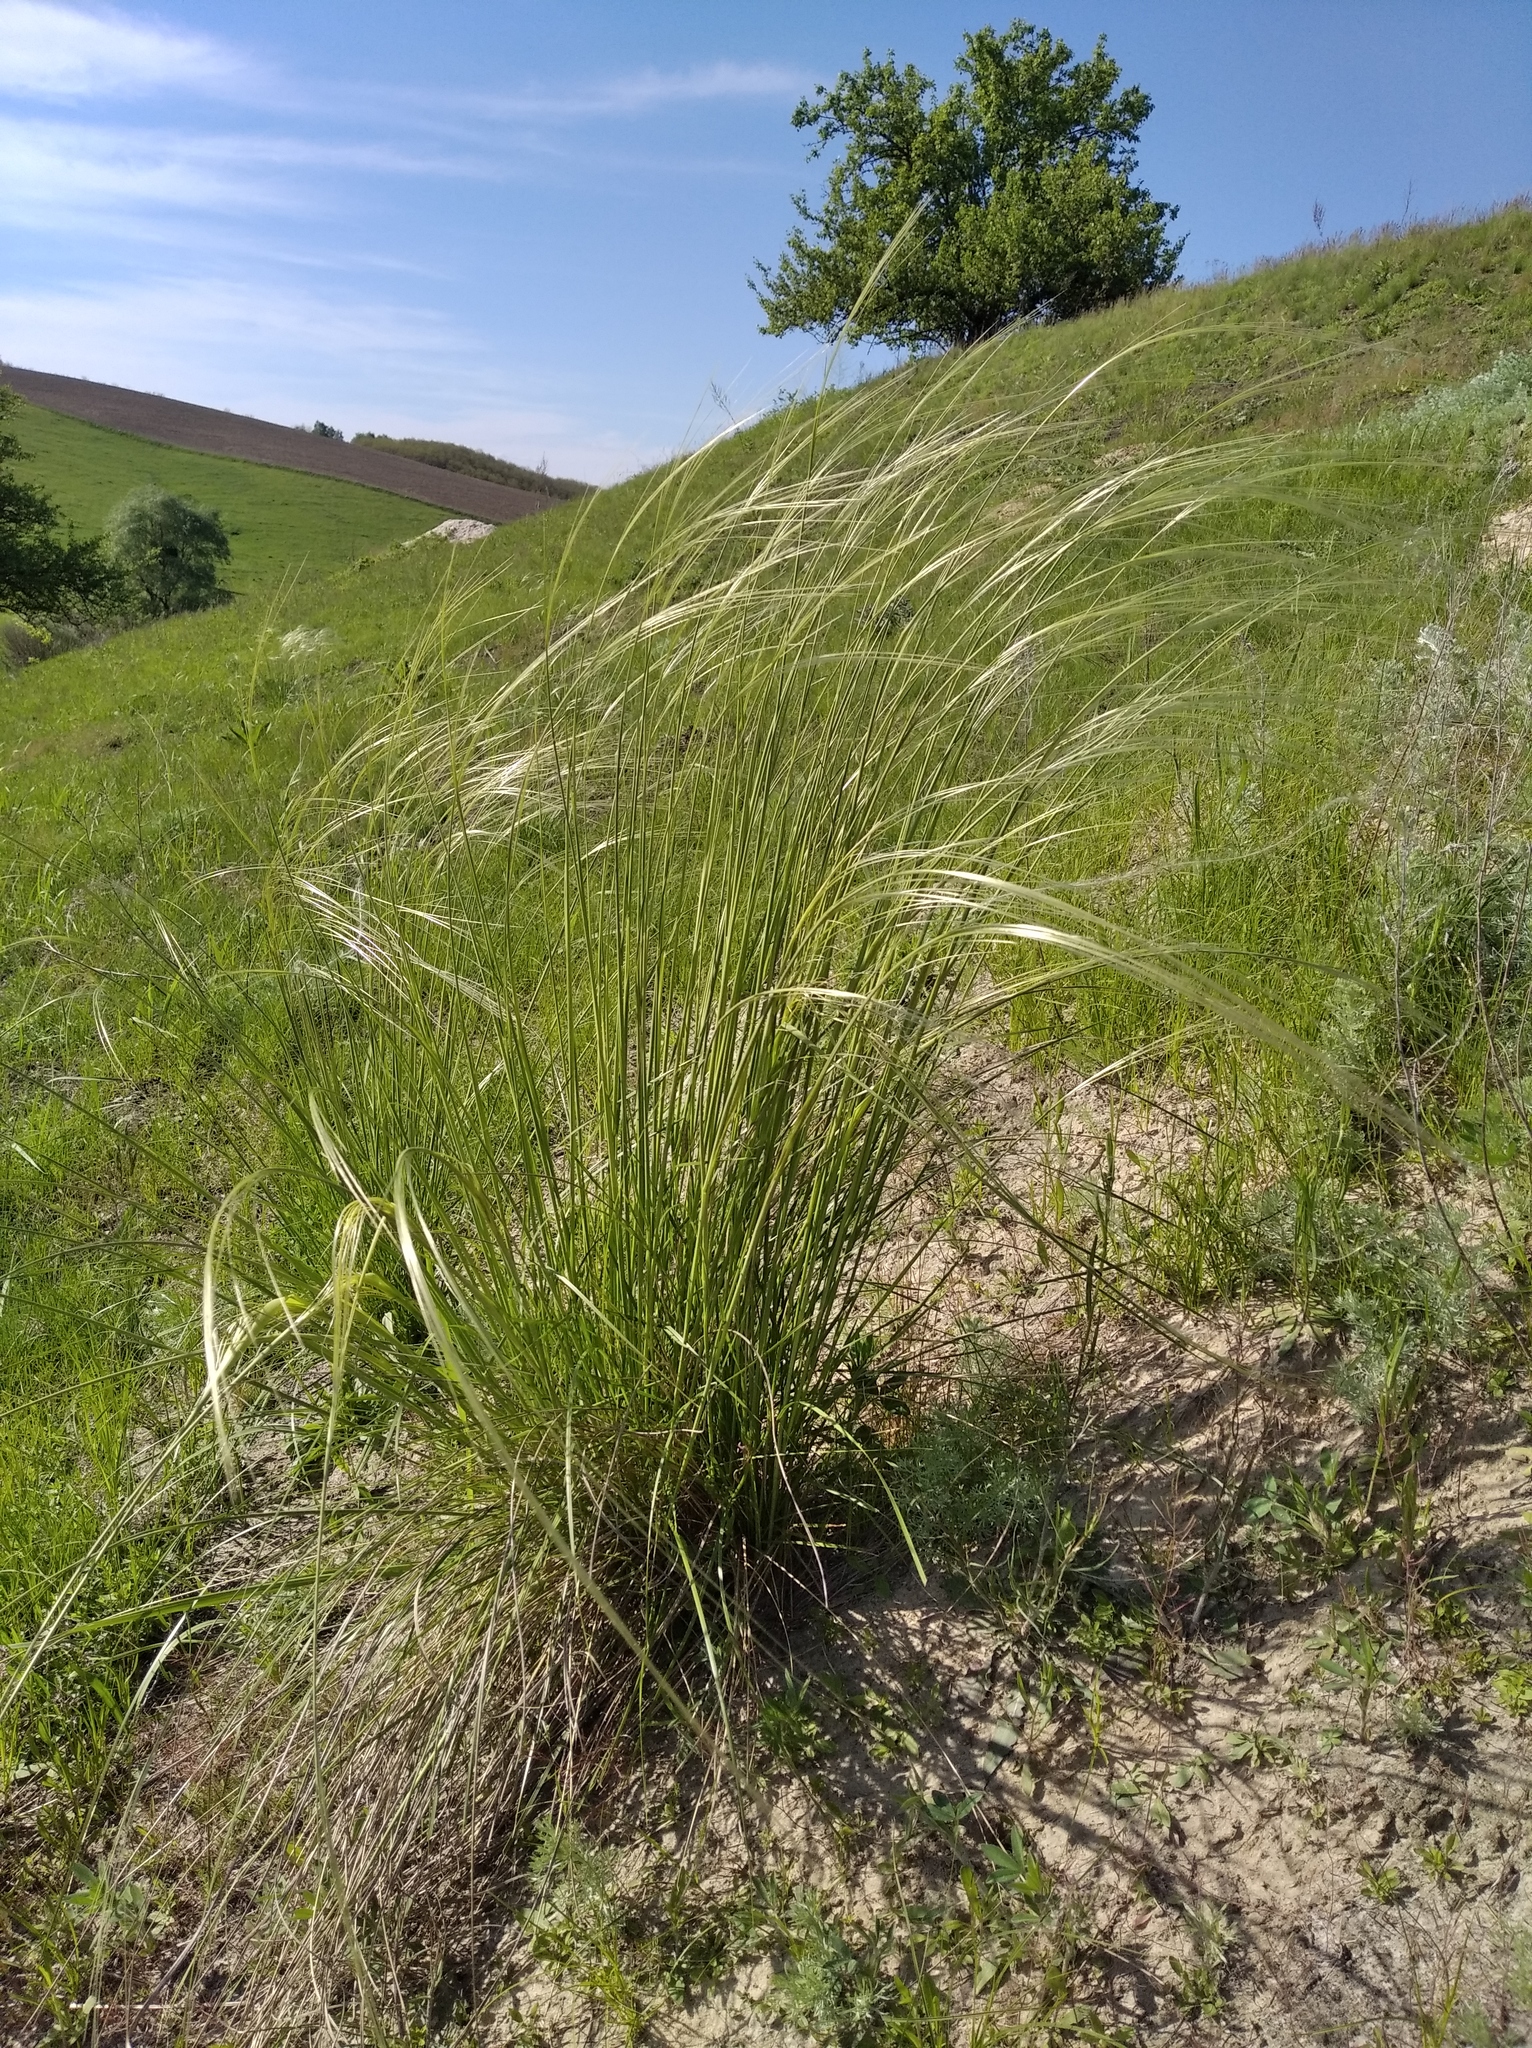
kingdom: Plantae
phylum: Tracheophyta
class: Liliopsida
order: Poales
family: Poaceae
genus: Stipa
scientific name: Stipa pennata
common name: European feather grass
